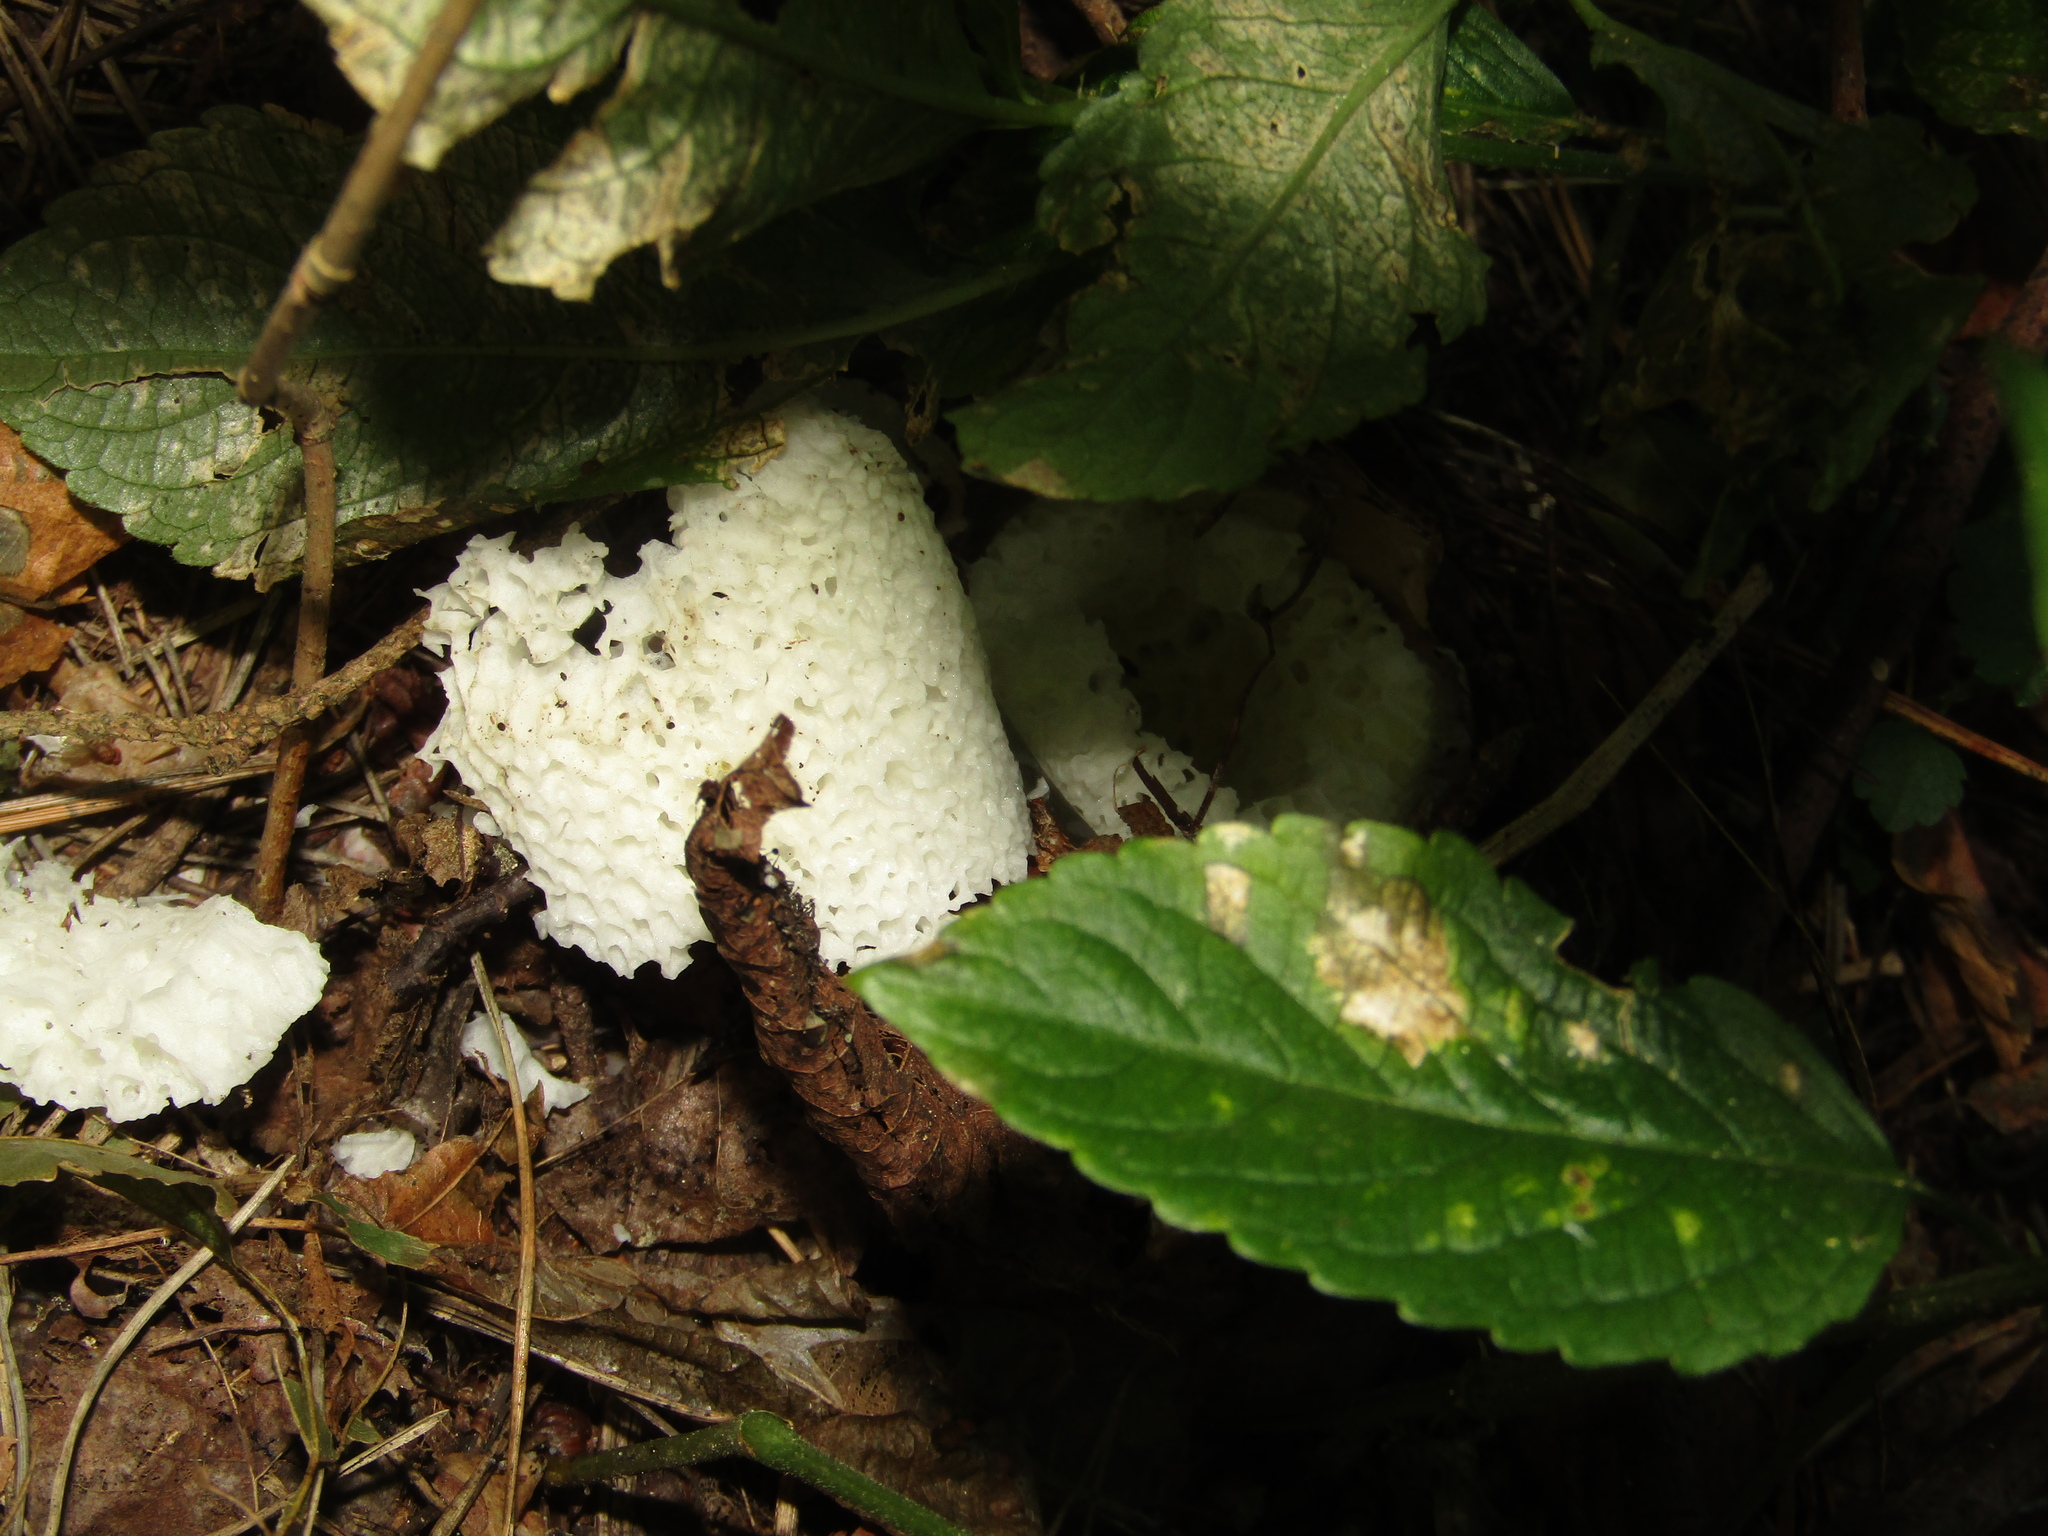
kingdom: Fungi
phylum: Basidiomycota
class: Agaricomycetes
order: Phallales
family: Phallaceae
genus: Phallus
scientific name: Phallus impudicus
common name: Common stinkhorn
